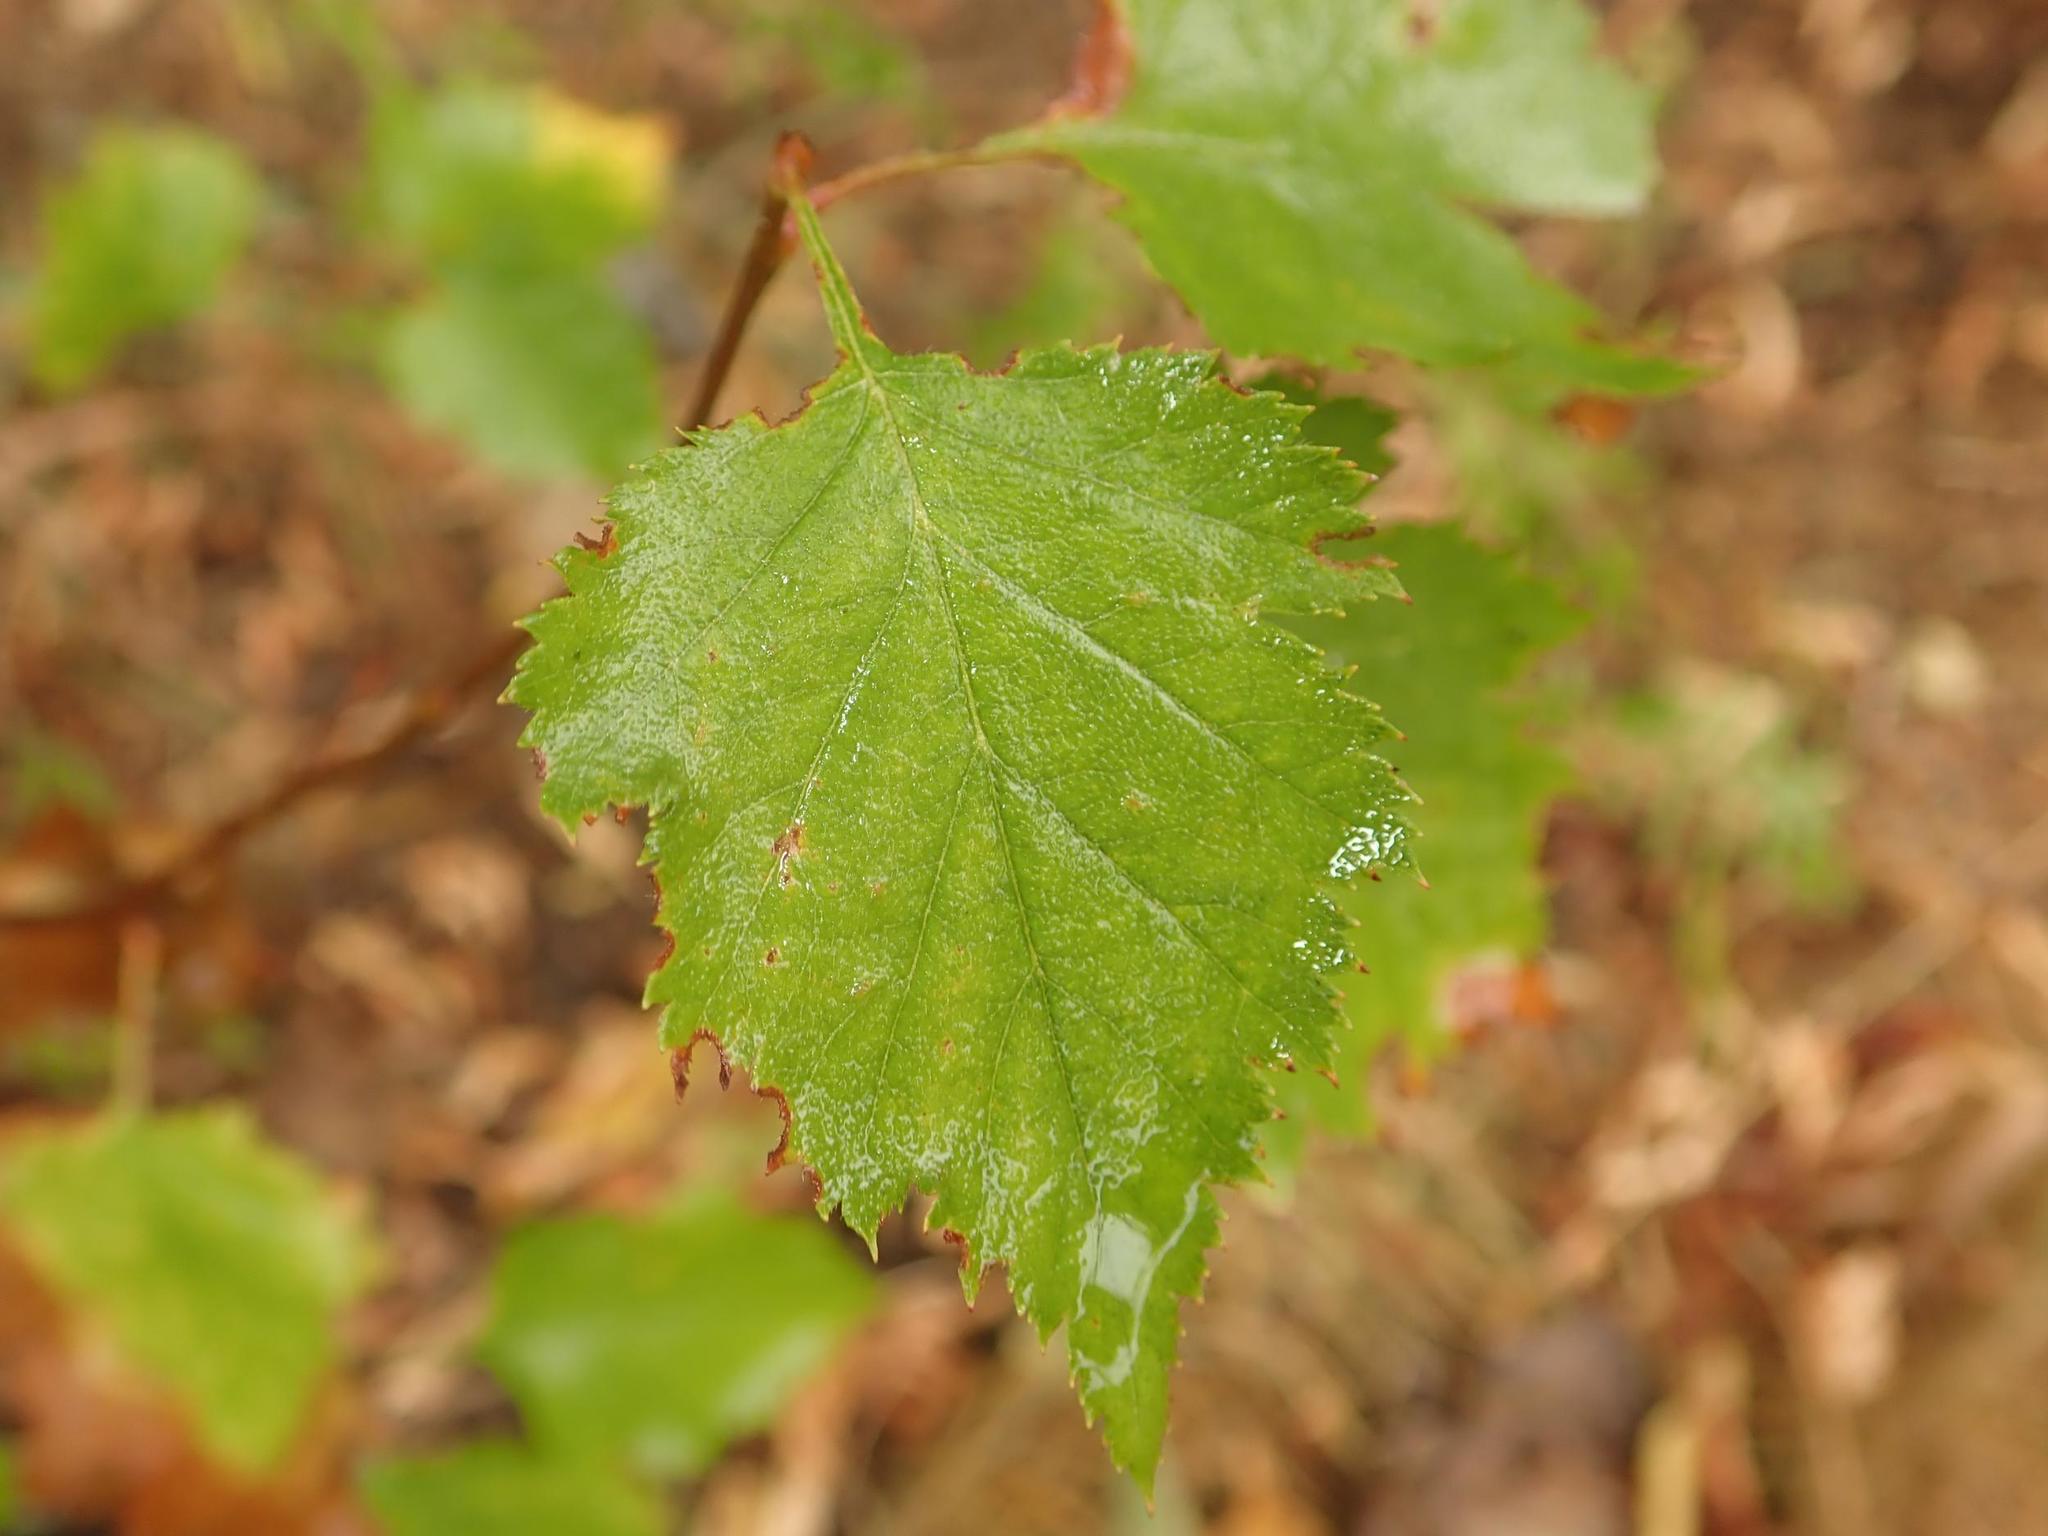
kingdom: Plantae
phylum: Tracheophyta
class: Magnoliopsida
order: Fagales
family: Betulaceae
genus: Betula
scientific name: Betula pendula
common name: Silver birch
